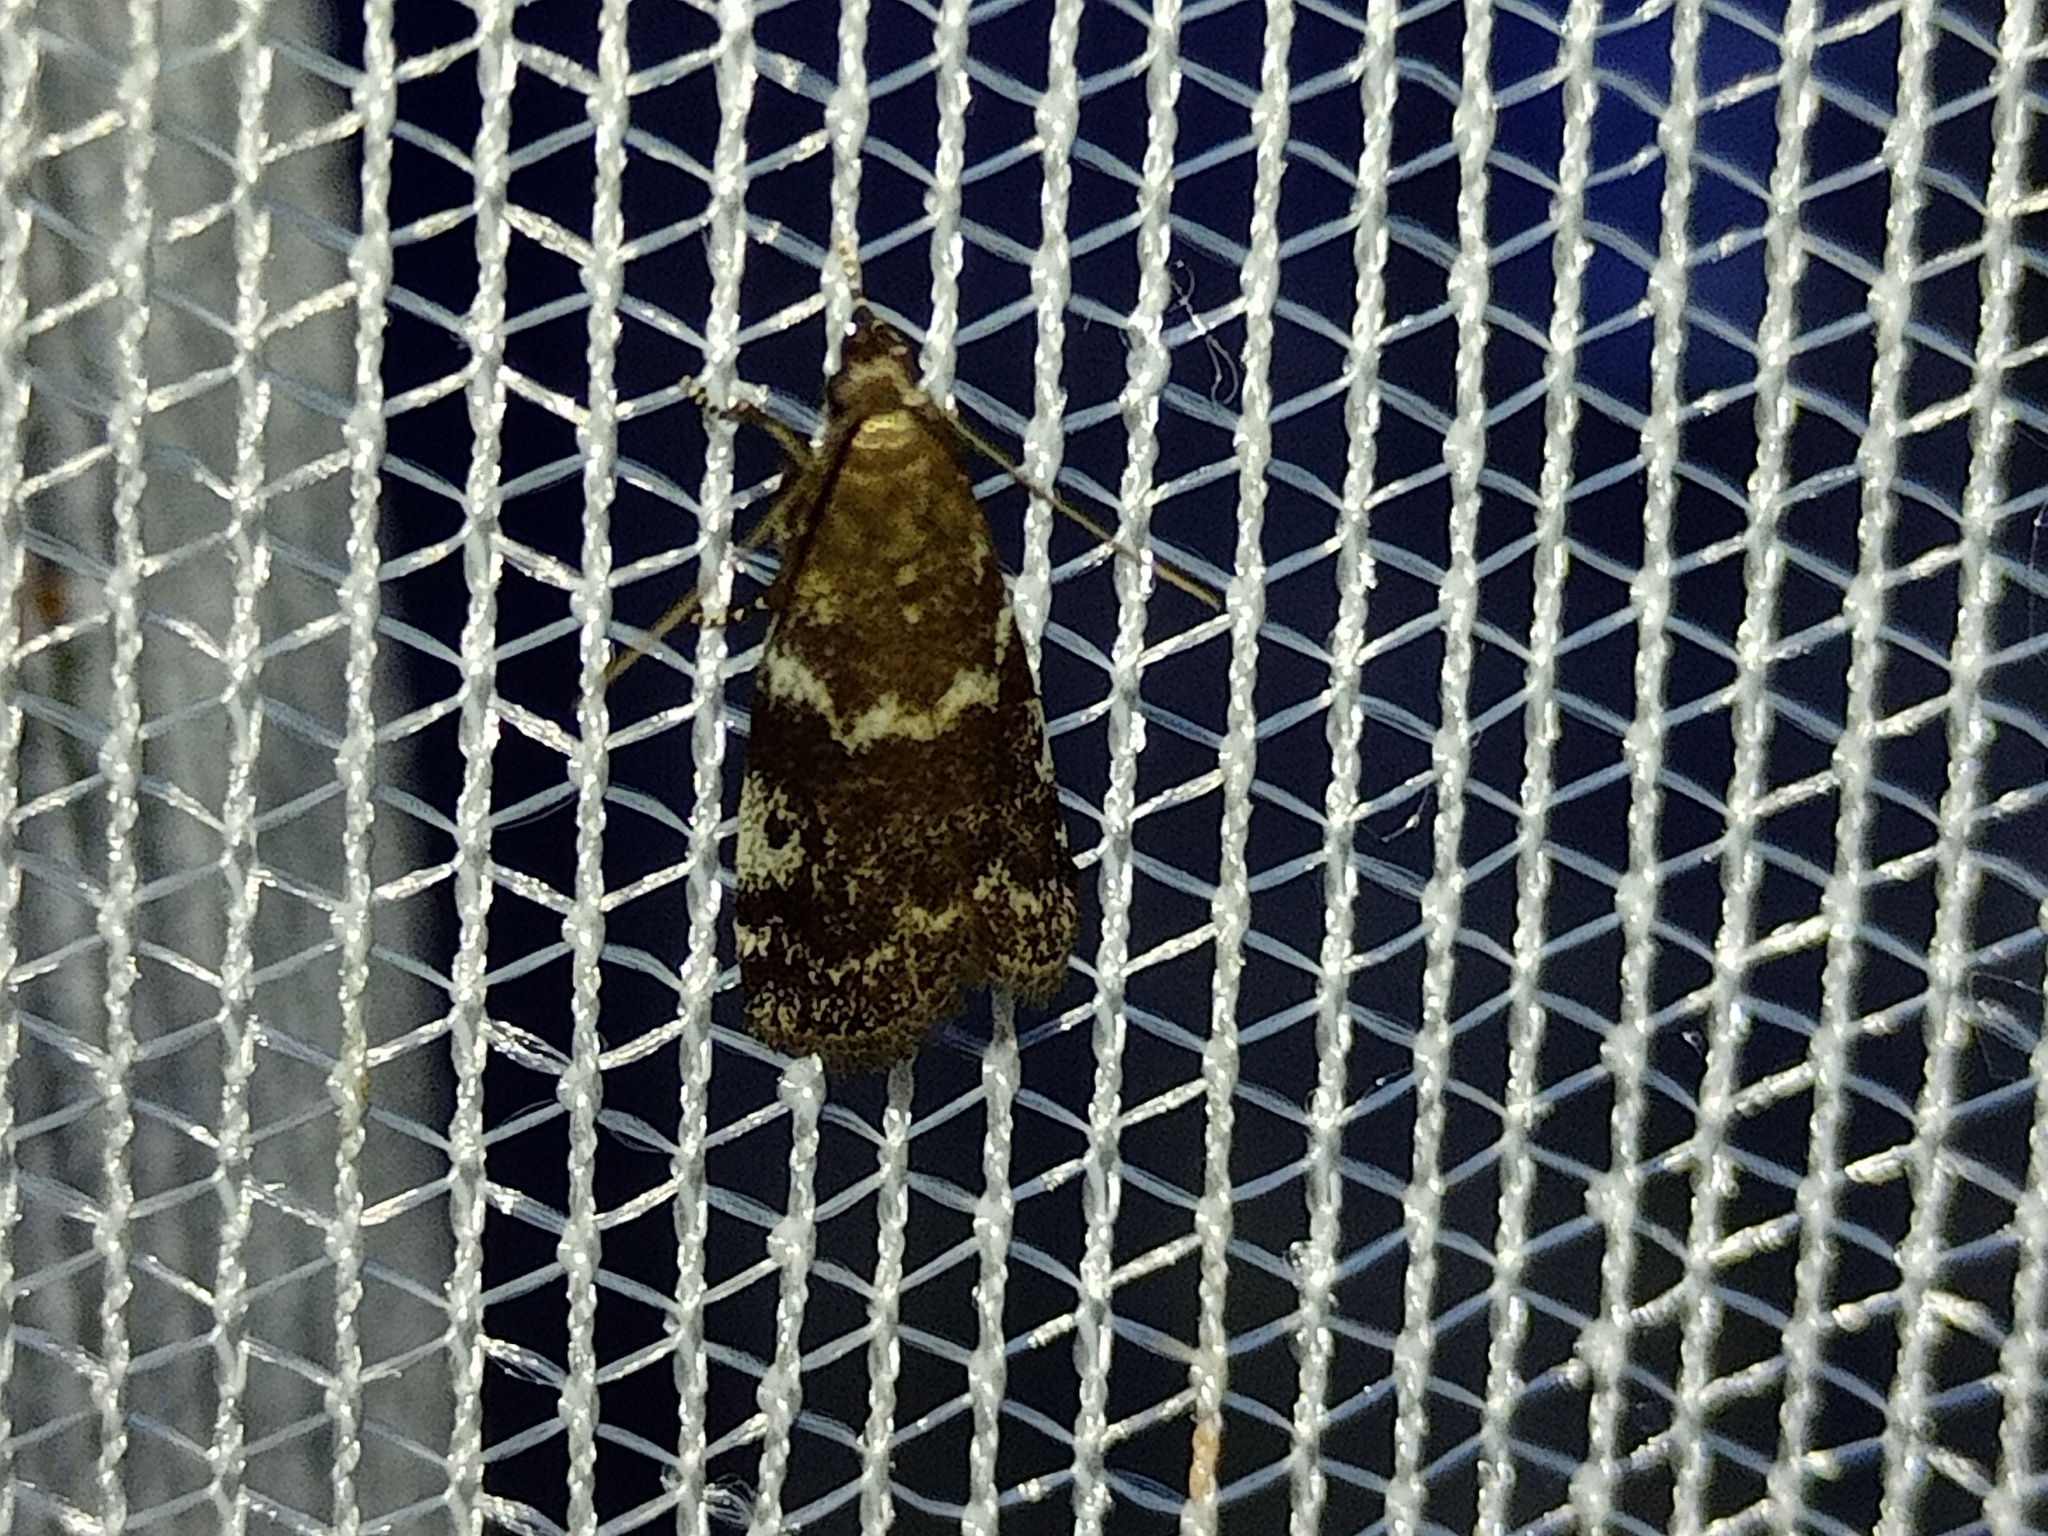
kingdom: Animalia
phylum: Arthropoda
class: Insecta
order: Lepidoptera
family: Pyralidae
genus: Assara
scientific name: Assara terebrella
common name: Dark spruce knot-horn
